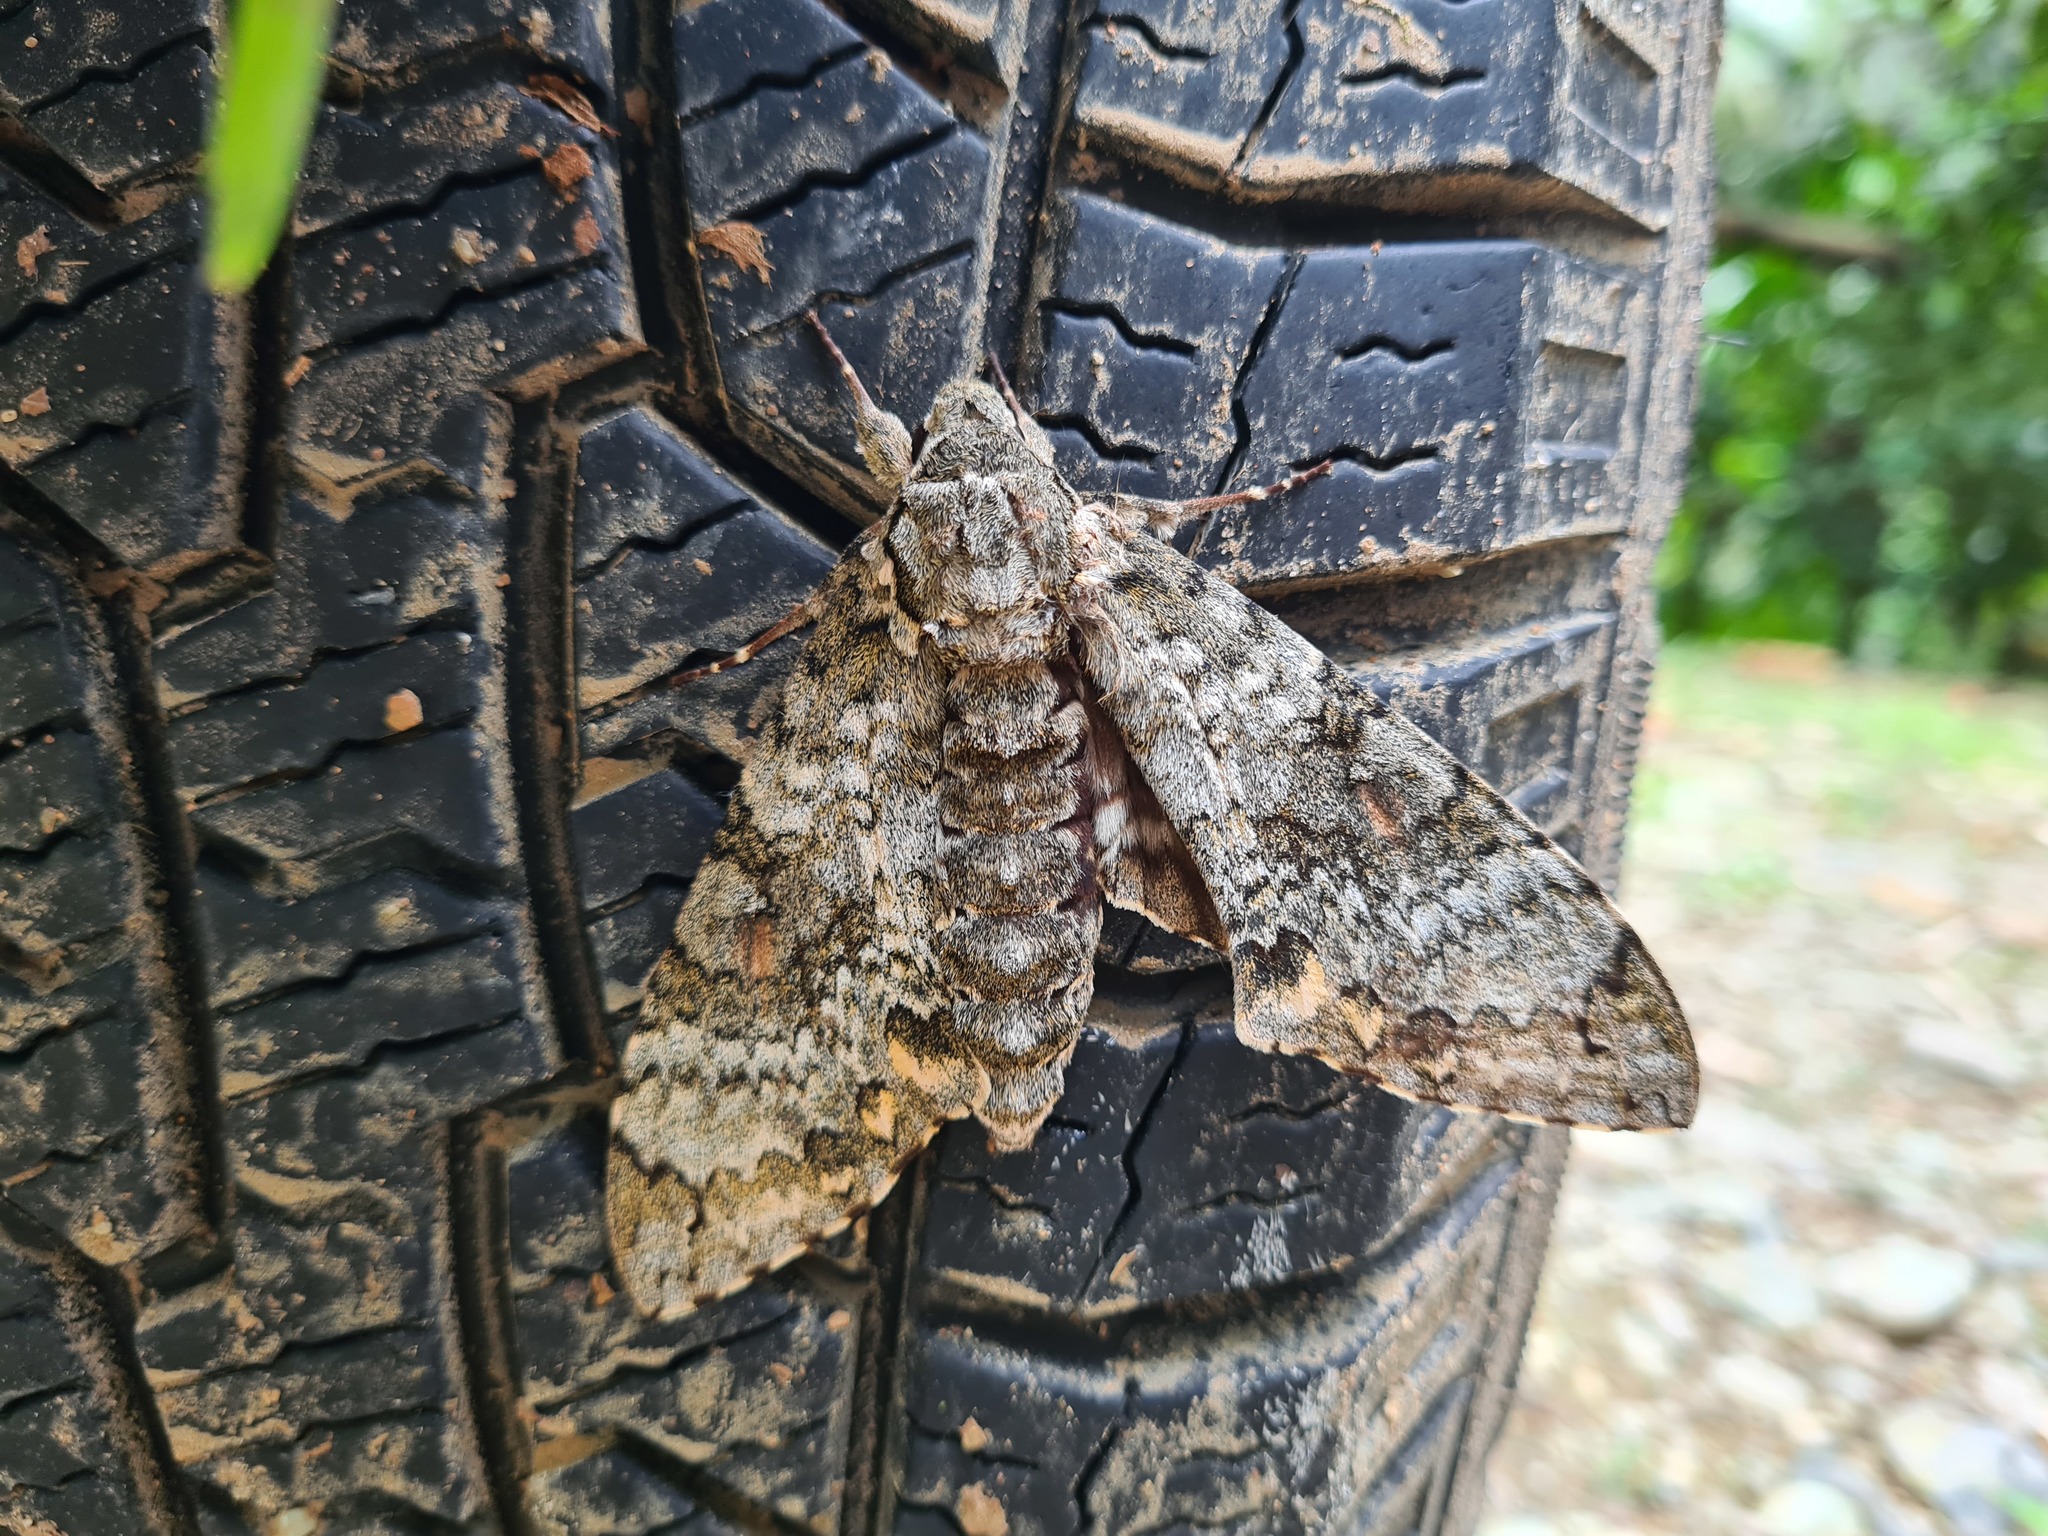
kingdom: Animalia
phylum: Arthropoda
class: Insecta
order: Lepidoptera
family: Sphingidae
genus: Manduca
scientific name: Manduca florestan
